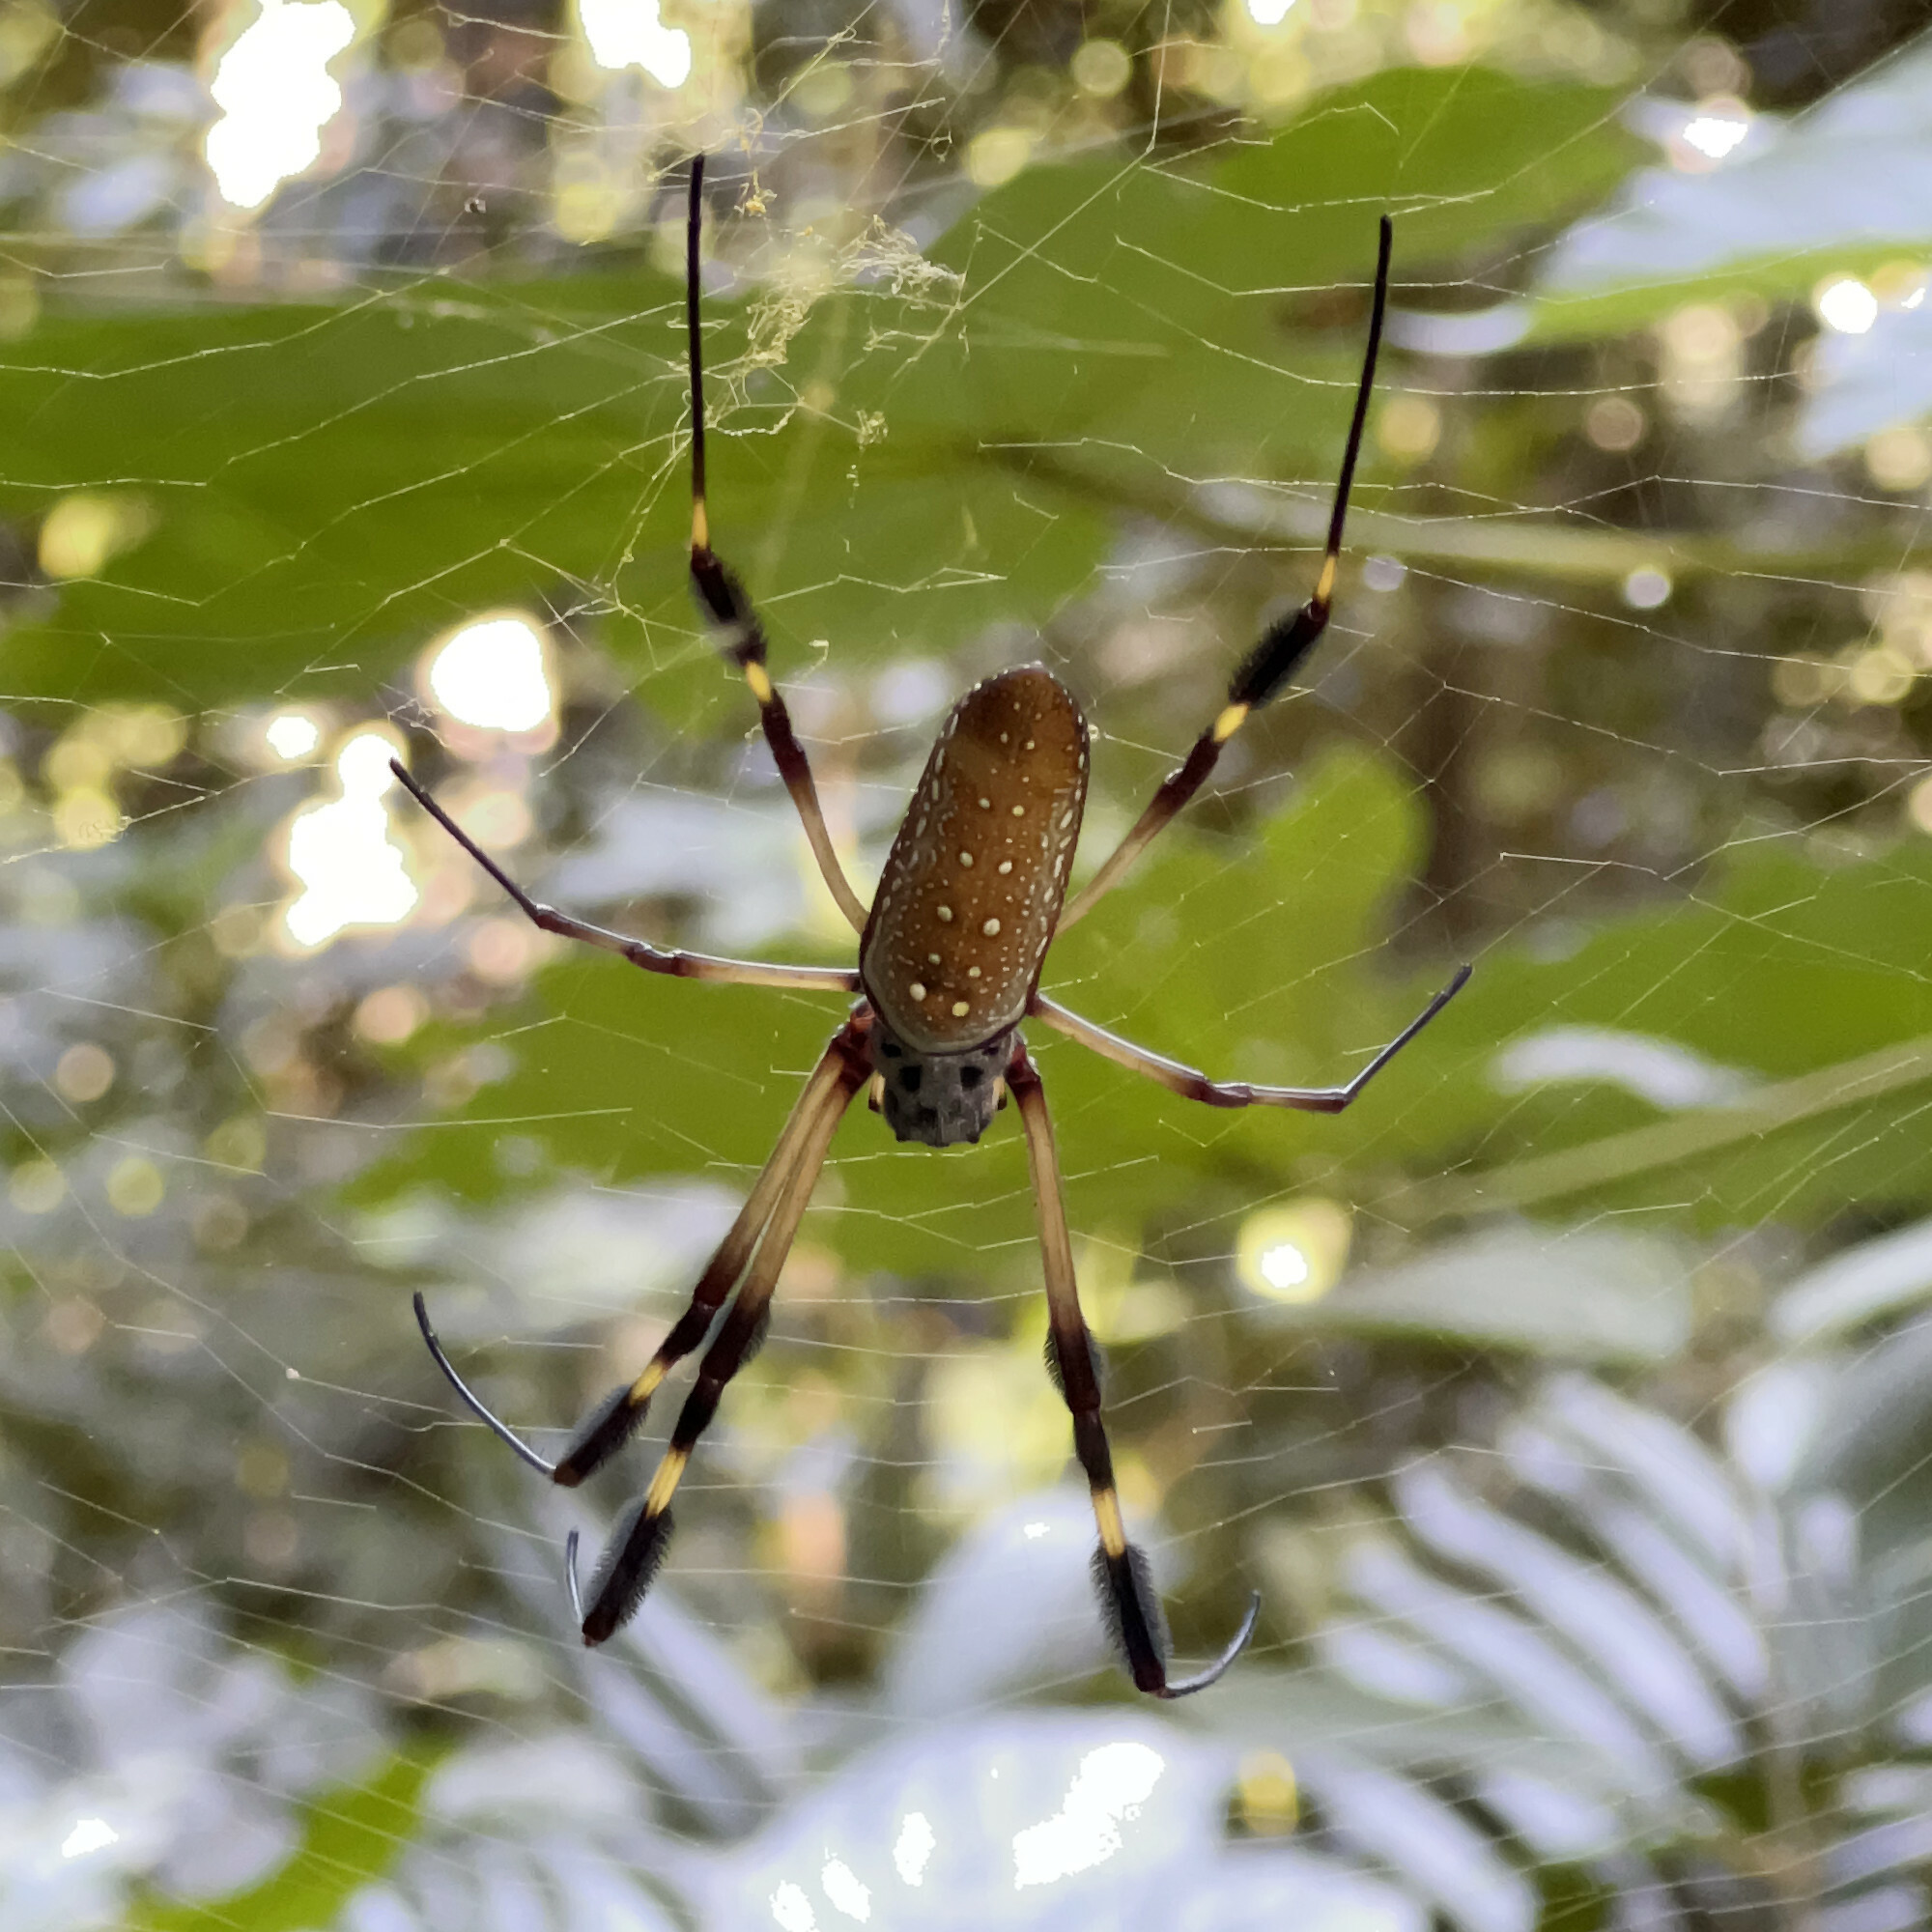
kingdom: Animalia
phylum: Arthropoda
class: Arachnida
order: Araneae
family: Araneidae
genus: Trichonephila
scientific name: Trichonephila clavipes
